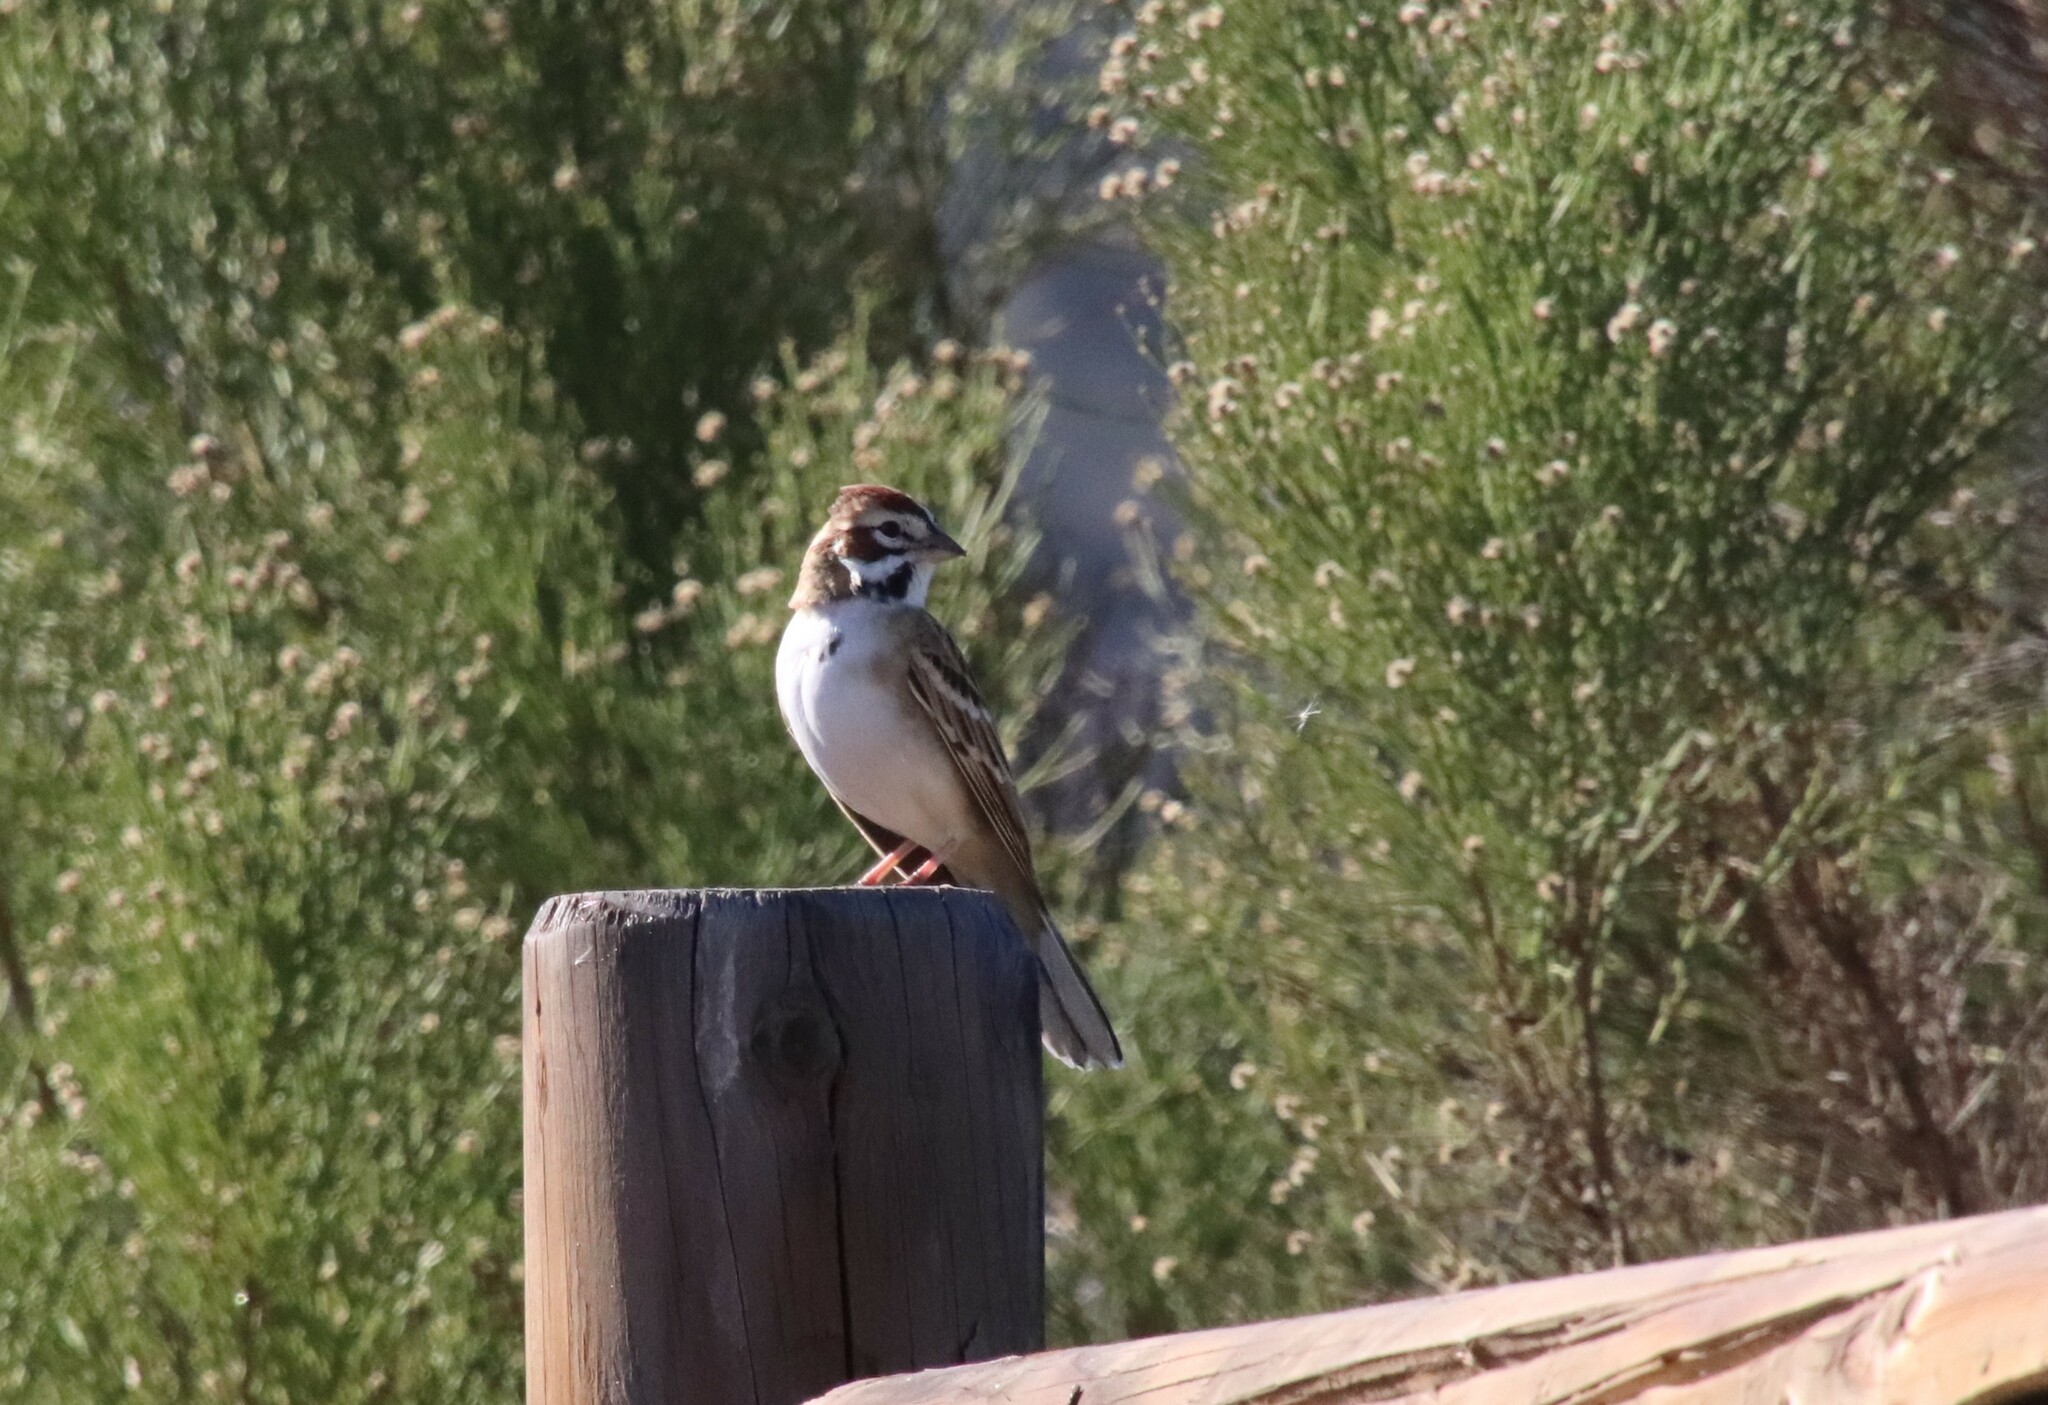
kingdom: Animalia
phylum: Chordata
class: Aves
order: Passeriformes
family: Passerellidae
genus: Chondestes
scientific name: Chondestes grammacus
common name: Lark sparrow
